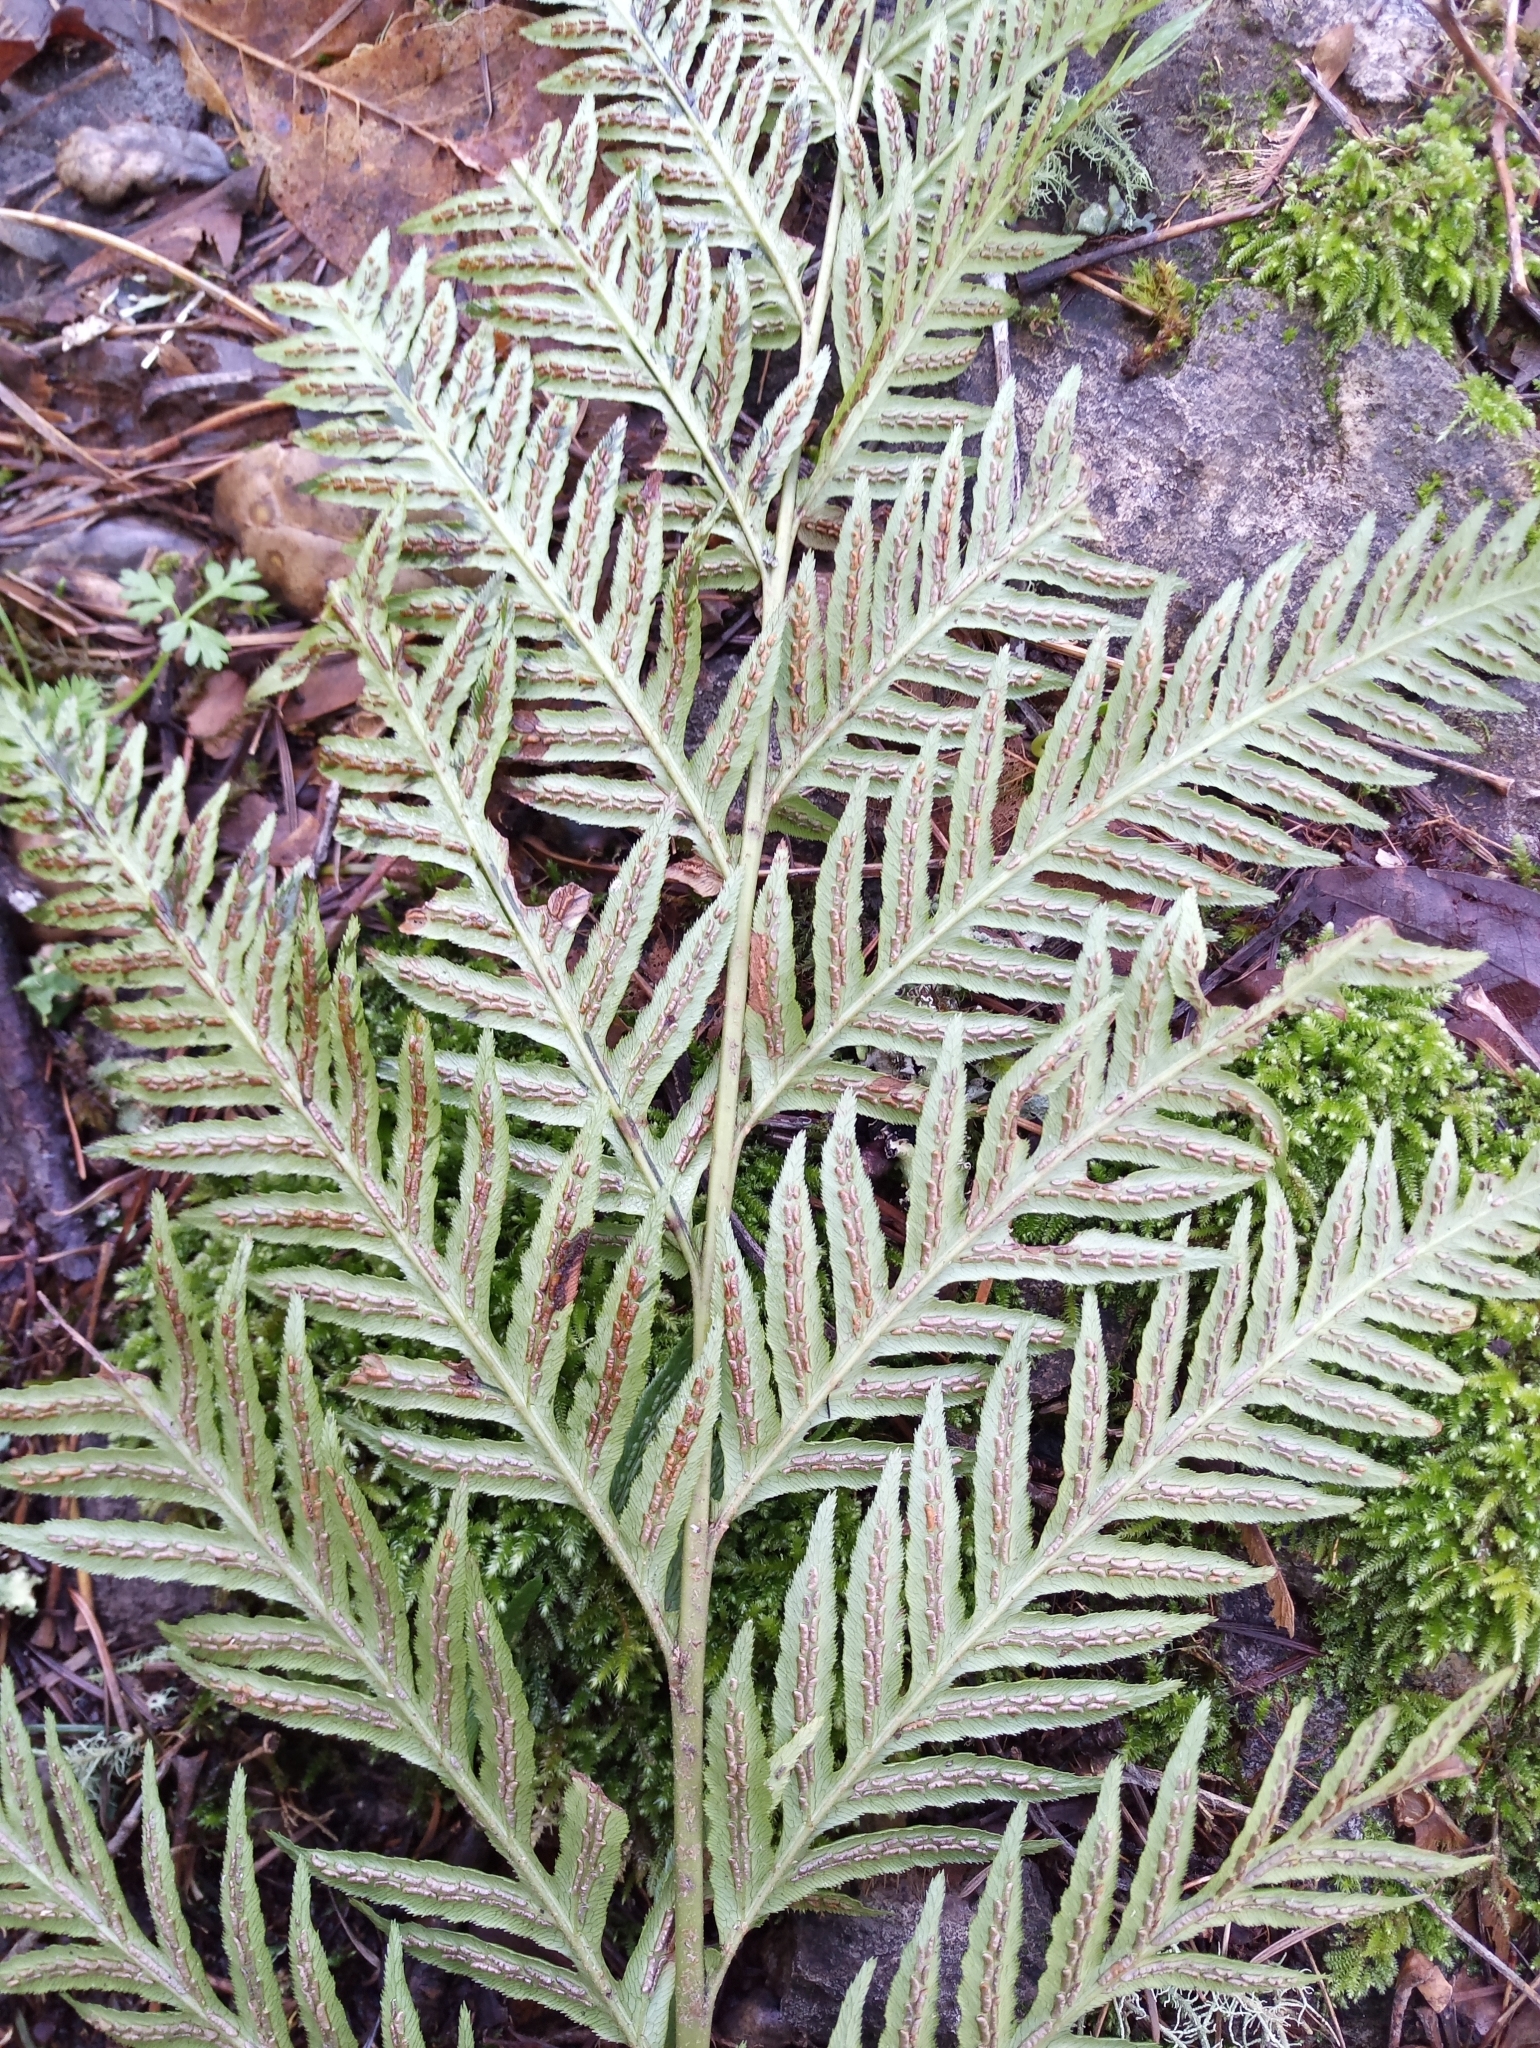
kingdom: Plantae
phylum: Tracheophyta
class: Polypodiopsida
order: Polypodiales
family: Blechnaceae
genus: Woodwardia
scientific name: Woodwardia fimbriata
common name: Giant chain fern
